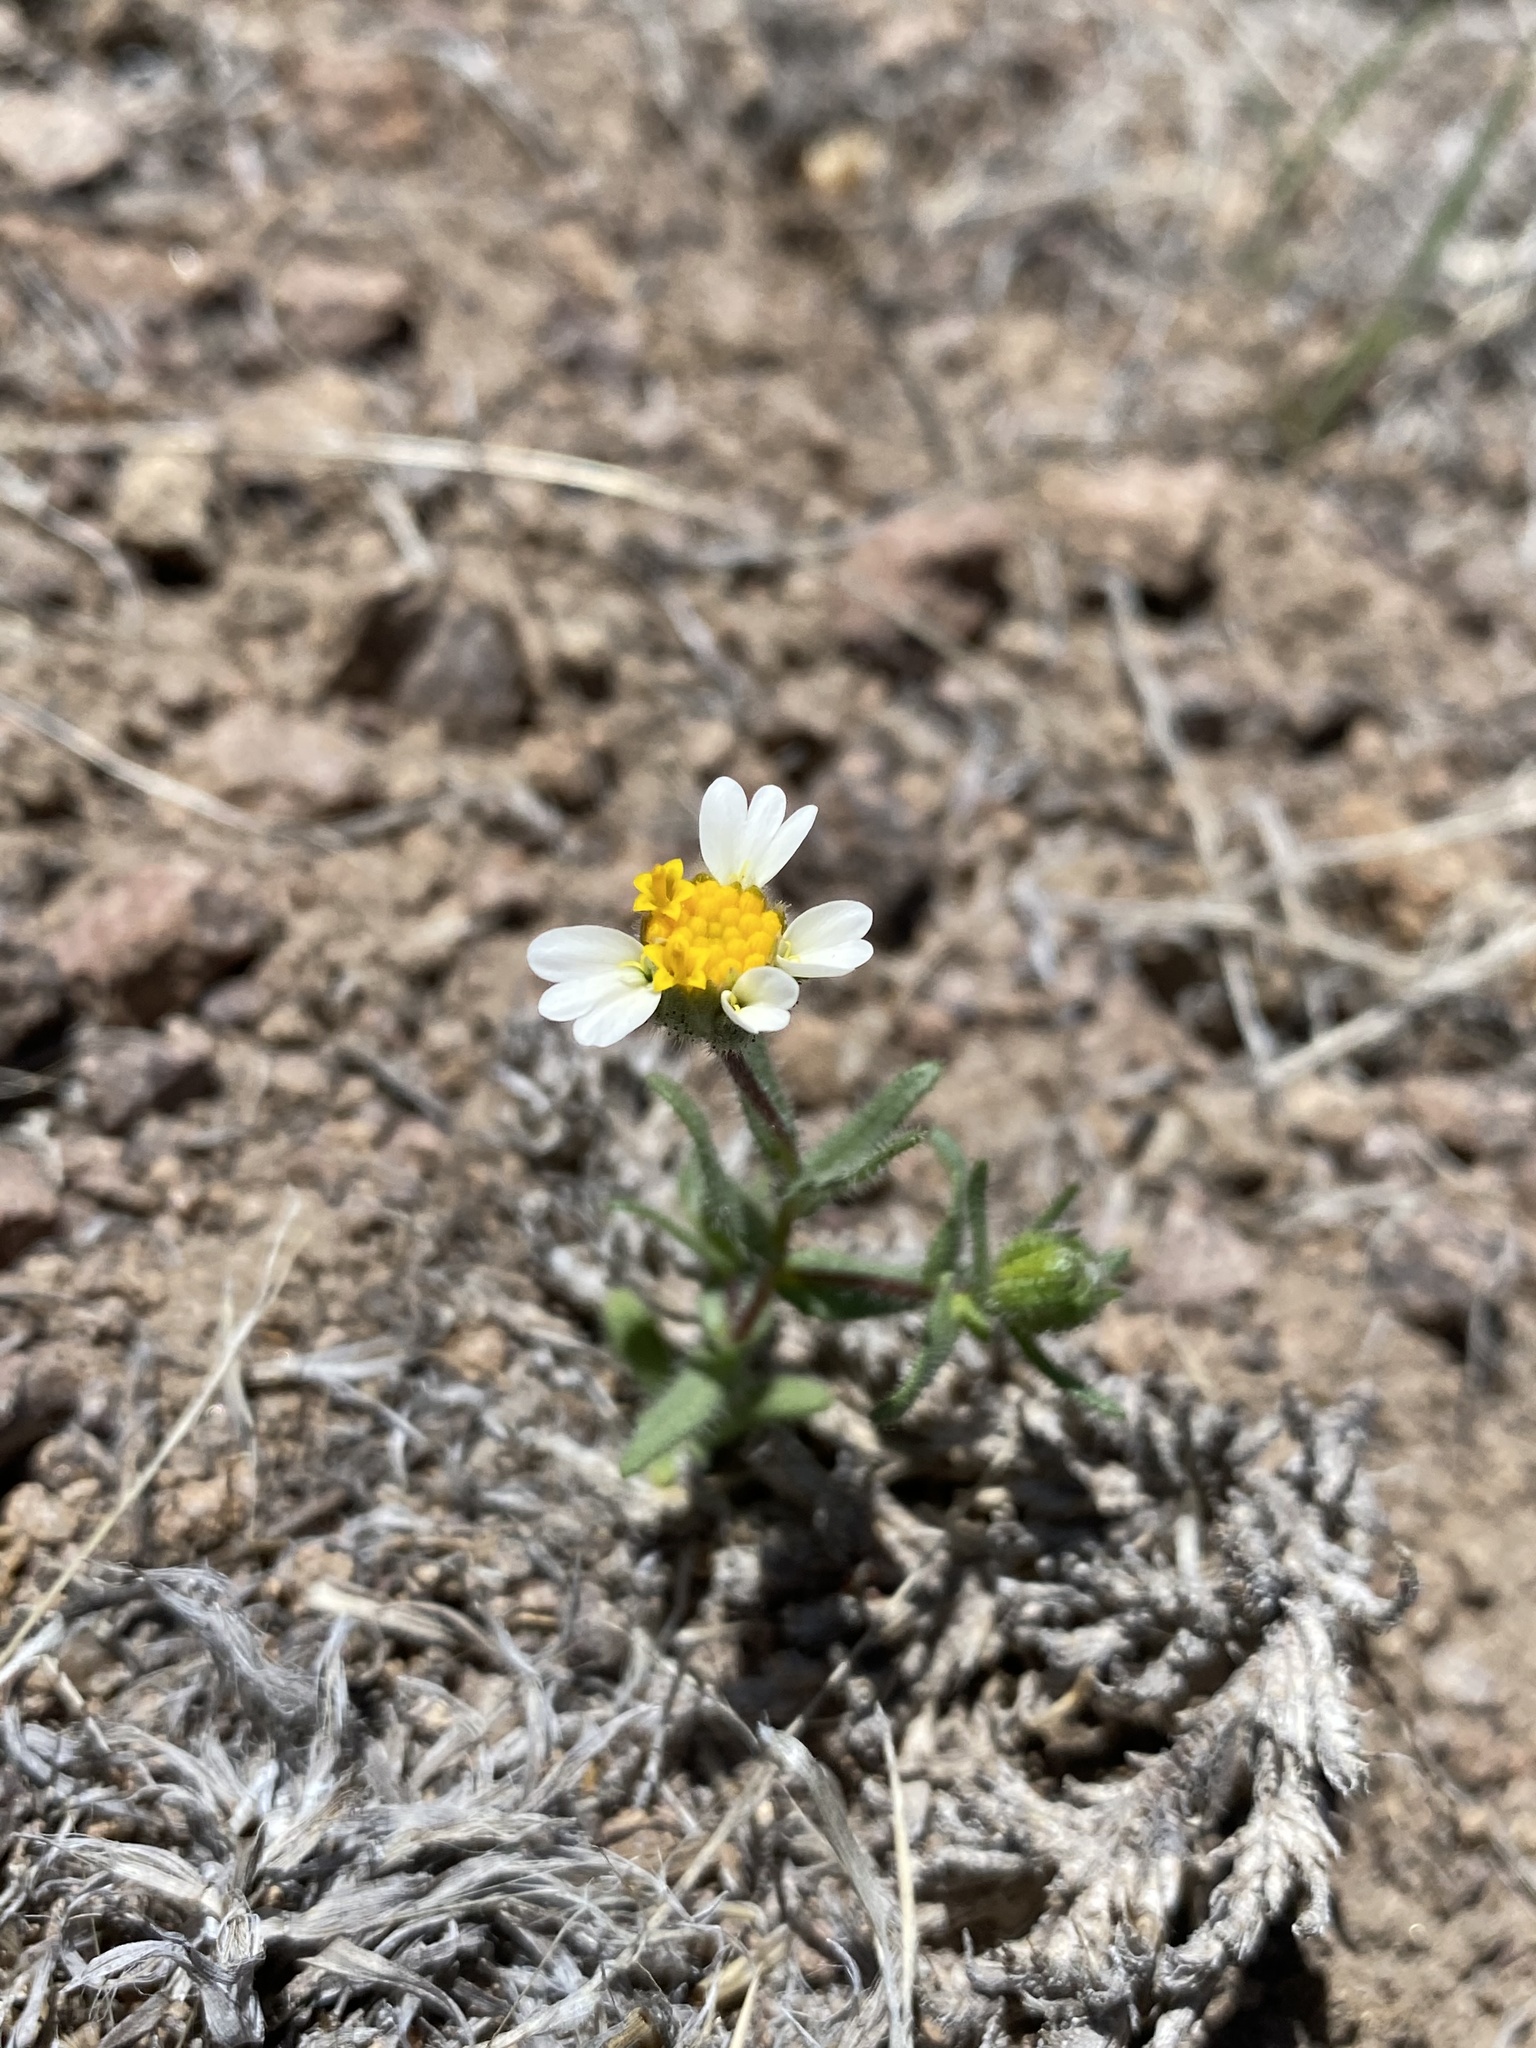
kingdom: Plantae
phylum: Tracheophyta
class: Magnoliopsida
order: Asterales
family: Asteraceae
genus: Layia
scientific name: Layia glandulosa
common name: White layia
